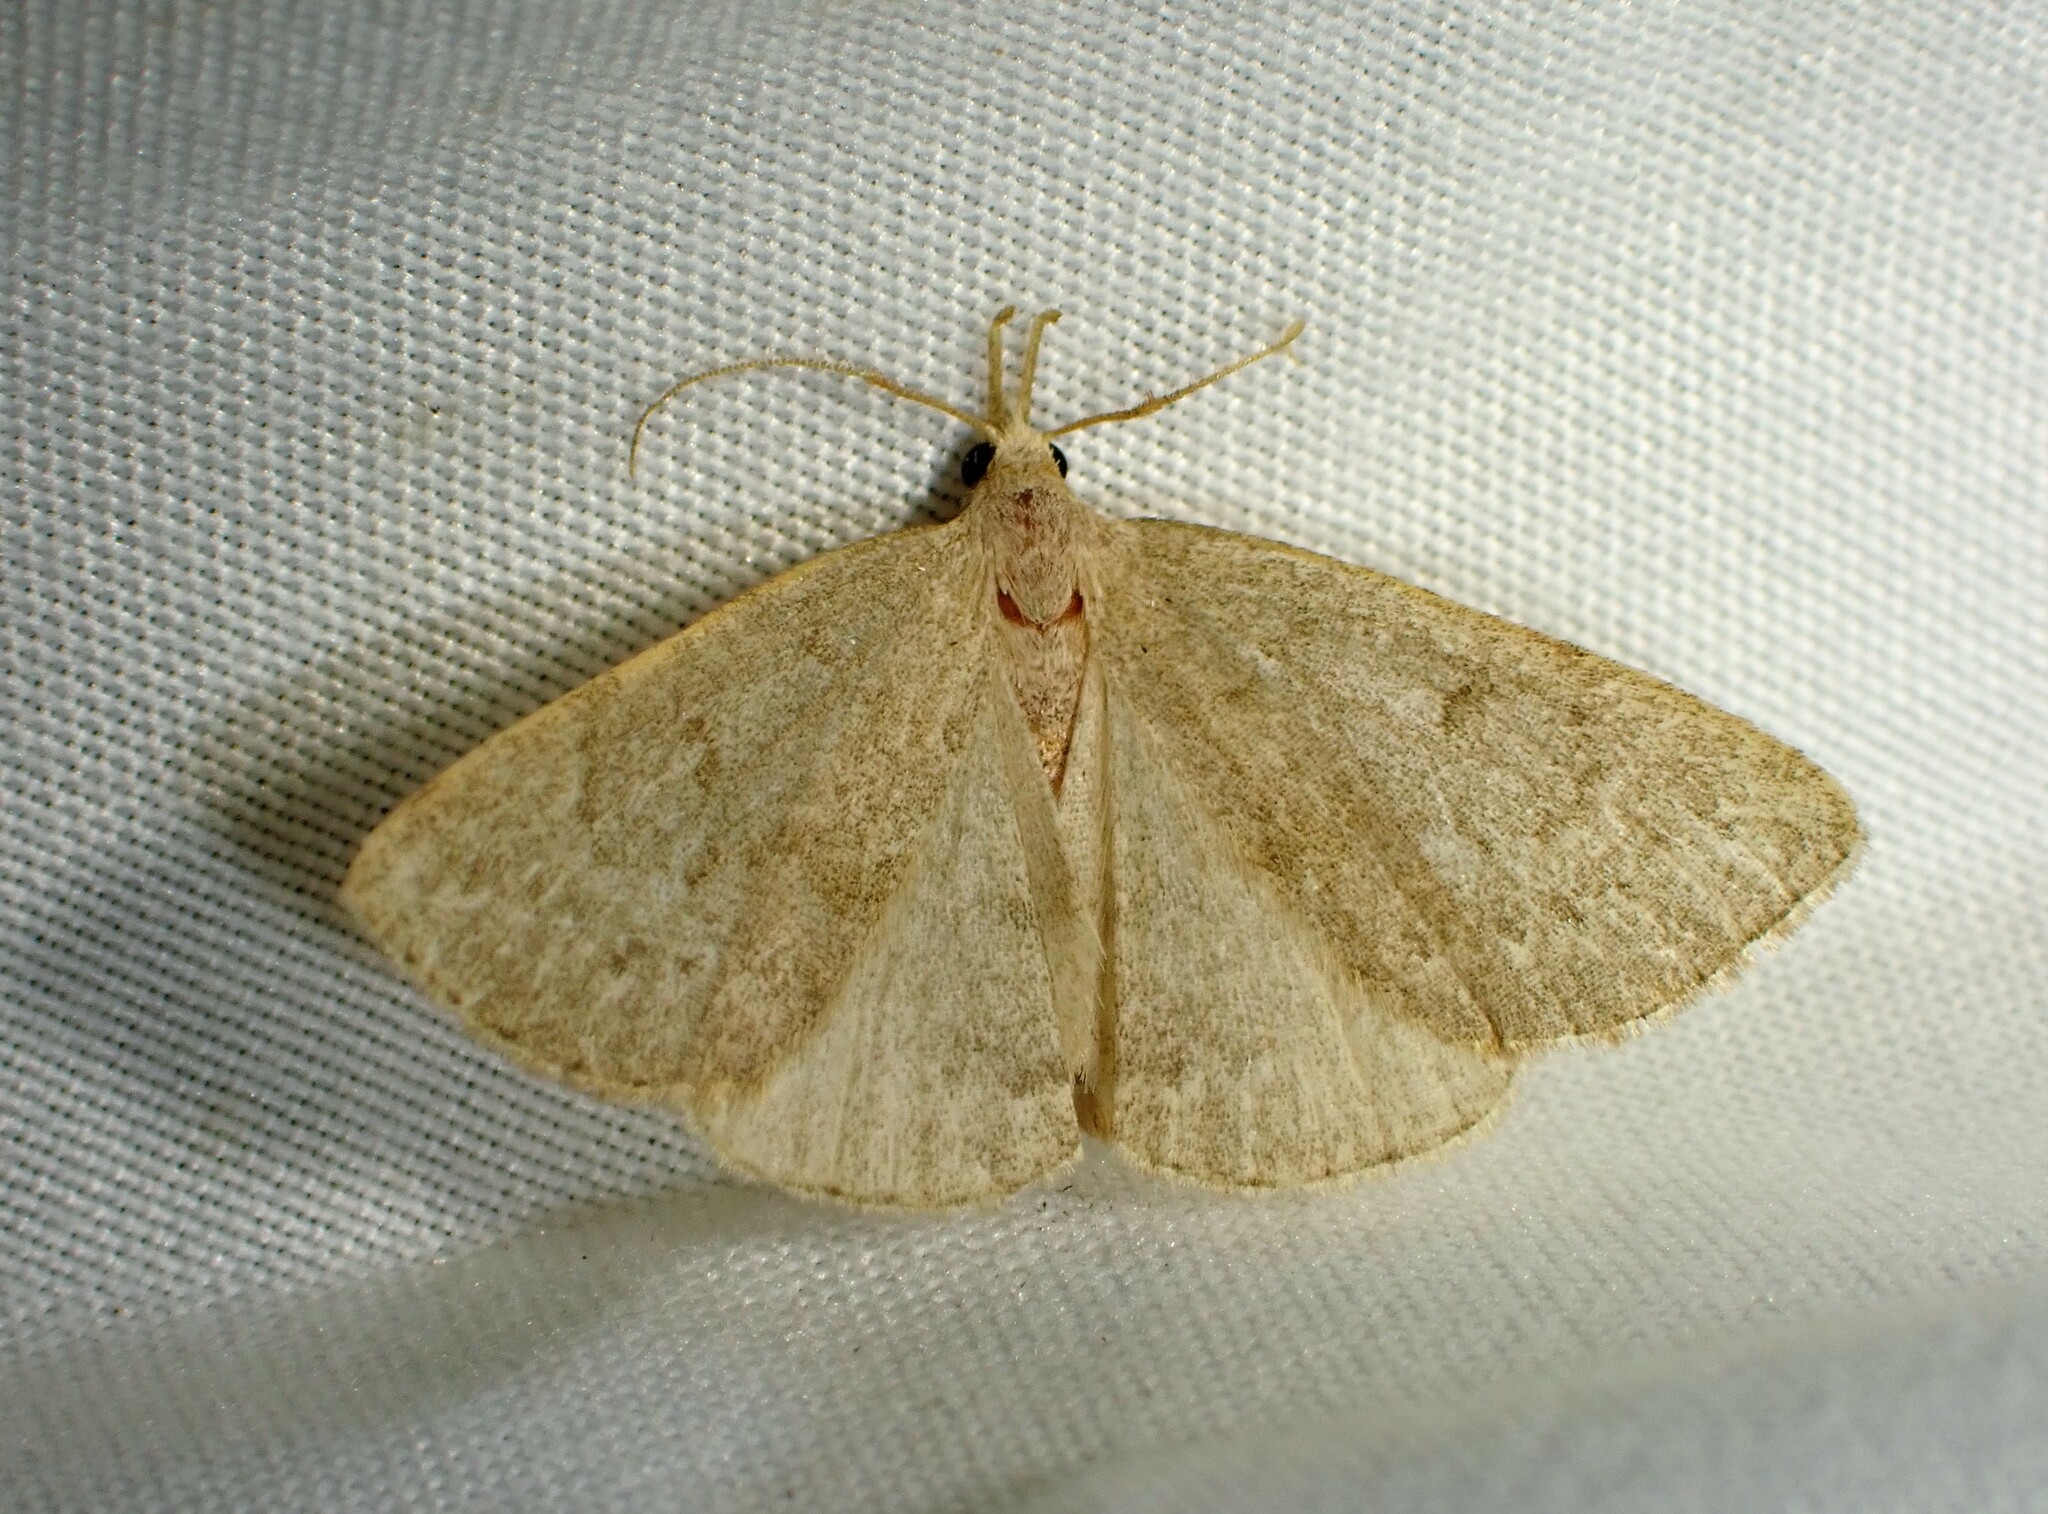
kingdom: Animalia
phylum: Arthropoda
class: Insecta
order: Lepidoptera
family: Erebidae
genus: Macrochilo
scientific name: Macrochilo morbidalis
